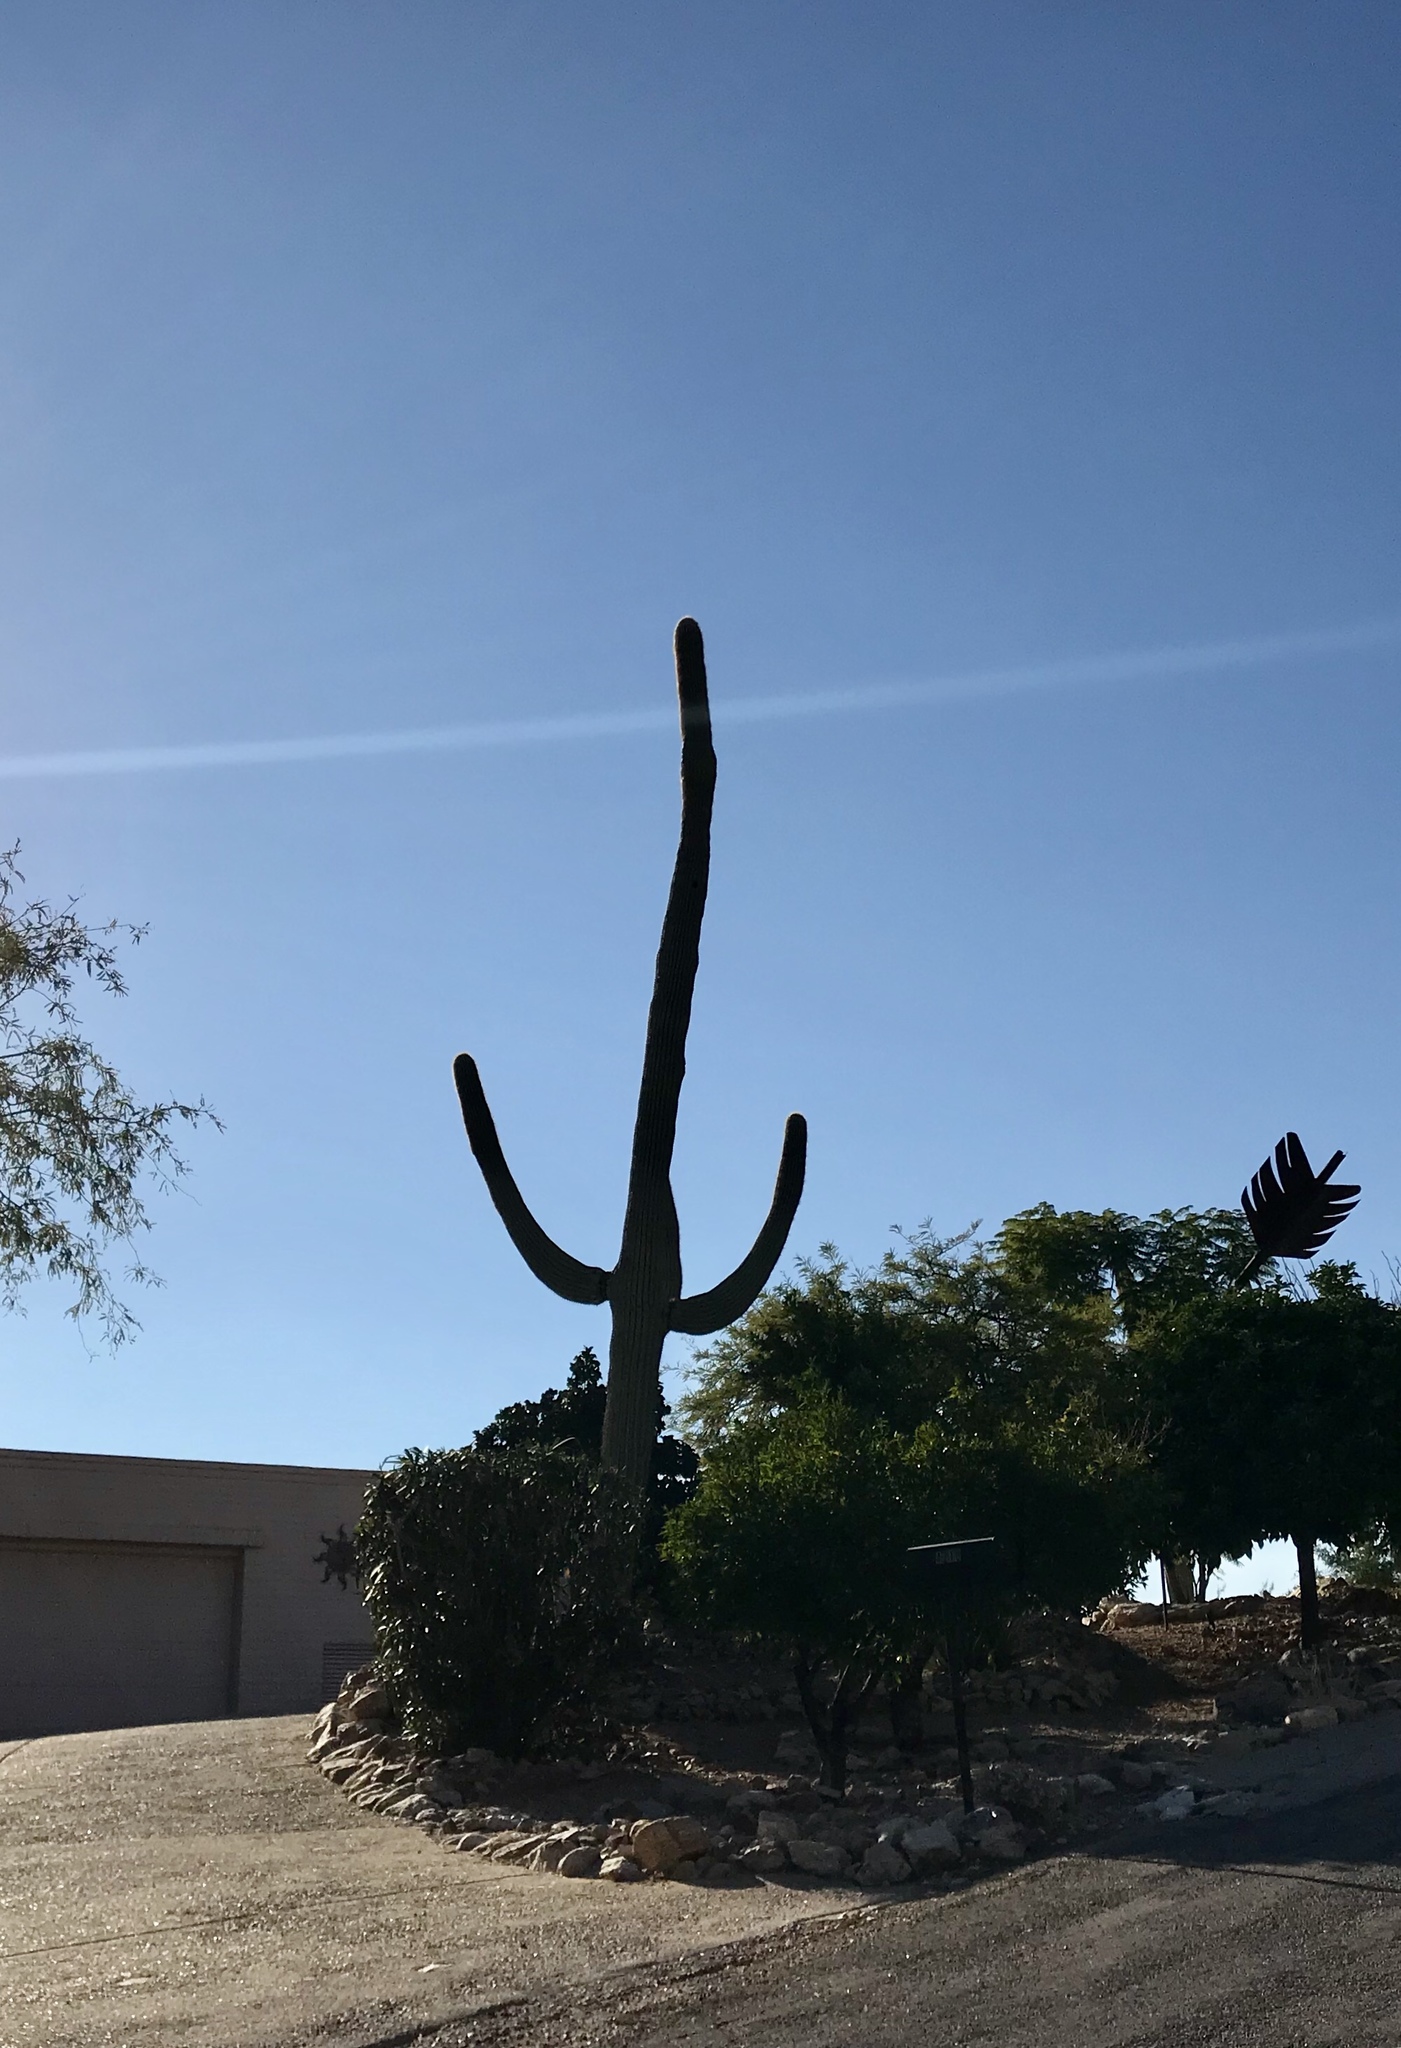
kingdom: Plantae
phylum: Tracheophyta
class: Magnoliopsida
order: Caryophyllales
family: Cactaceae
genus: Carnegiea
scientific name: Carnegiea gigantea
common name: Saguaro
